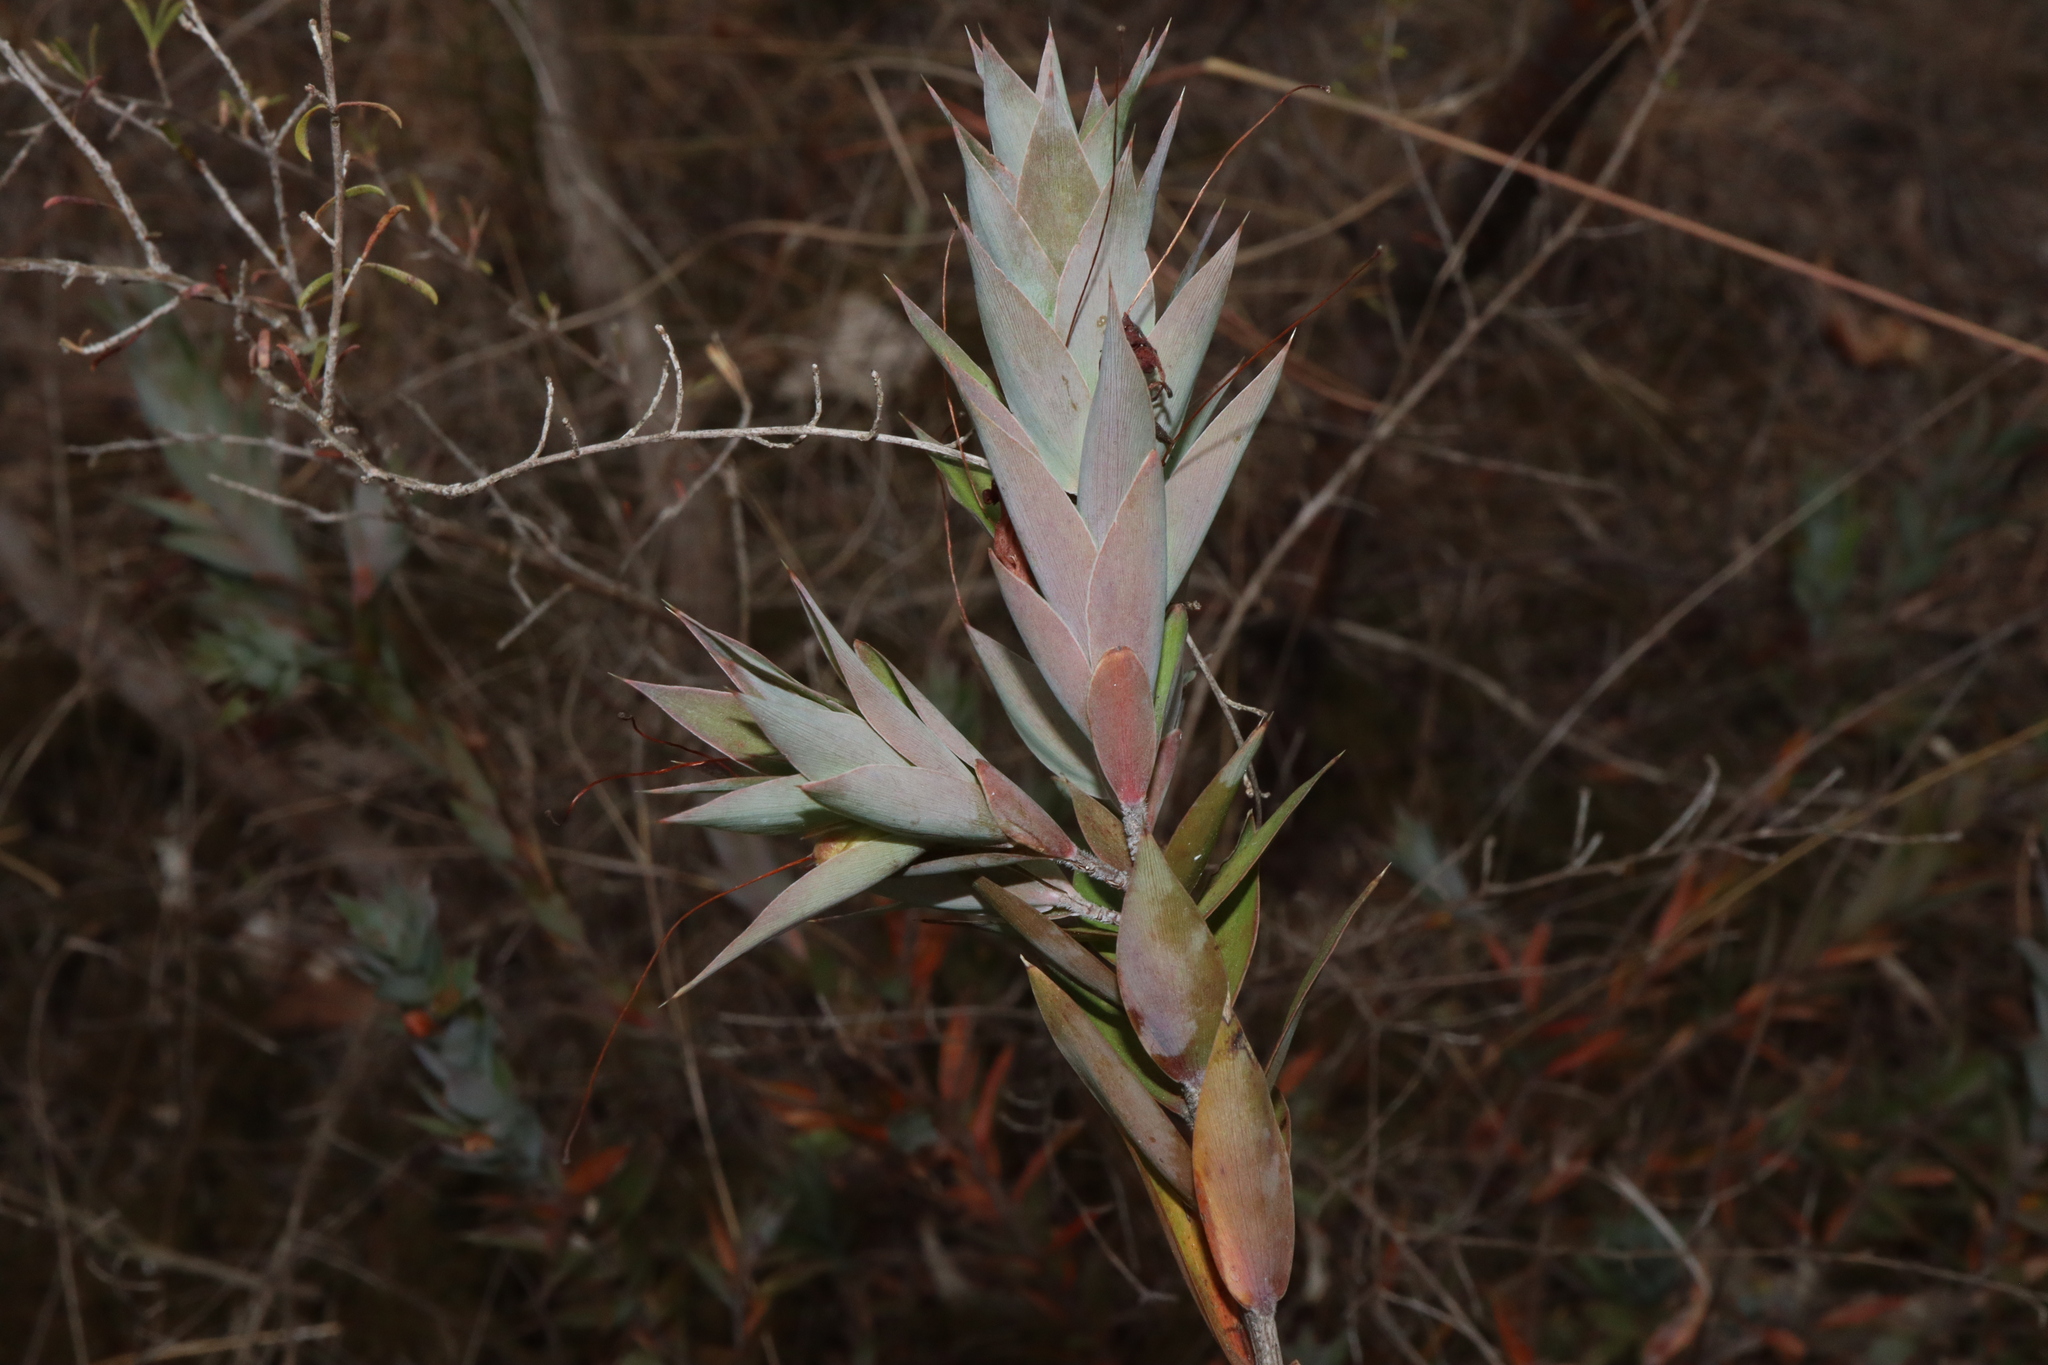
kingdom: Plantae
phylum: Tracheophyta
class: Magnoliopsida
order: Ericales
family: Ericaceae
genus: Styphelia
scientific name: Styphelia laeta
